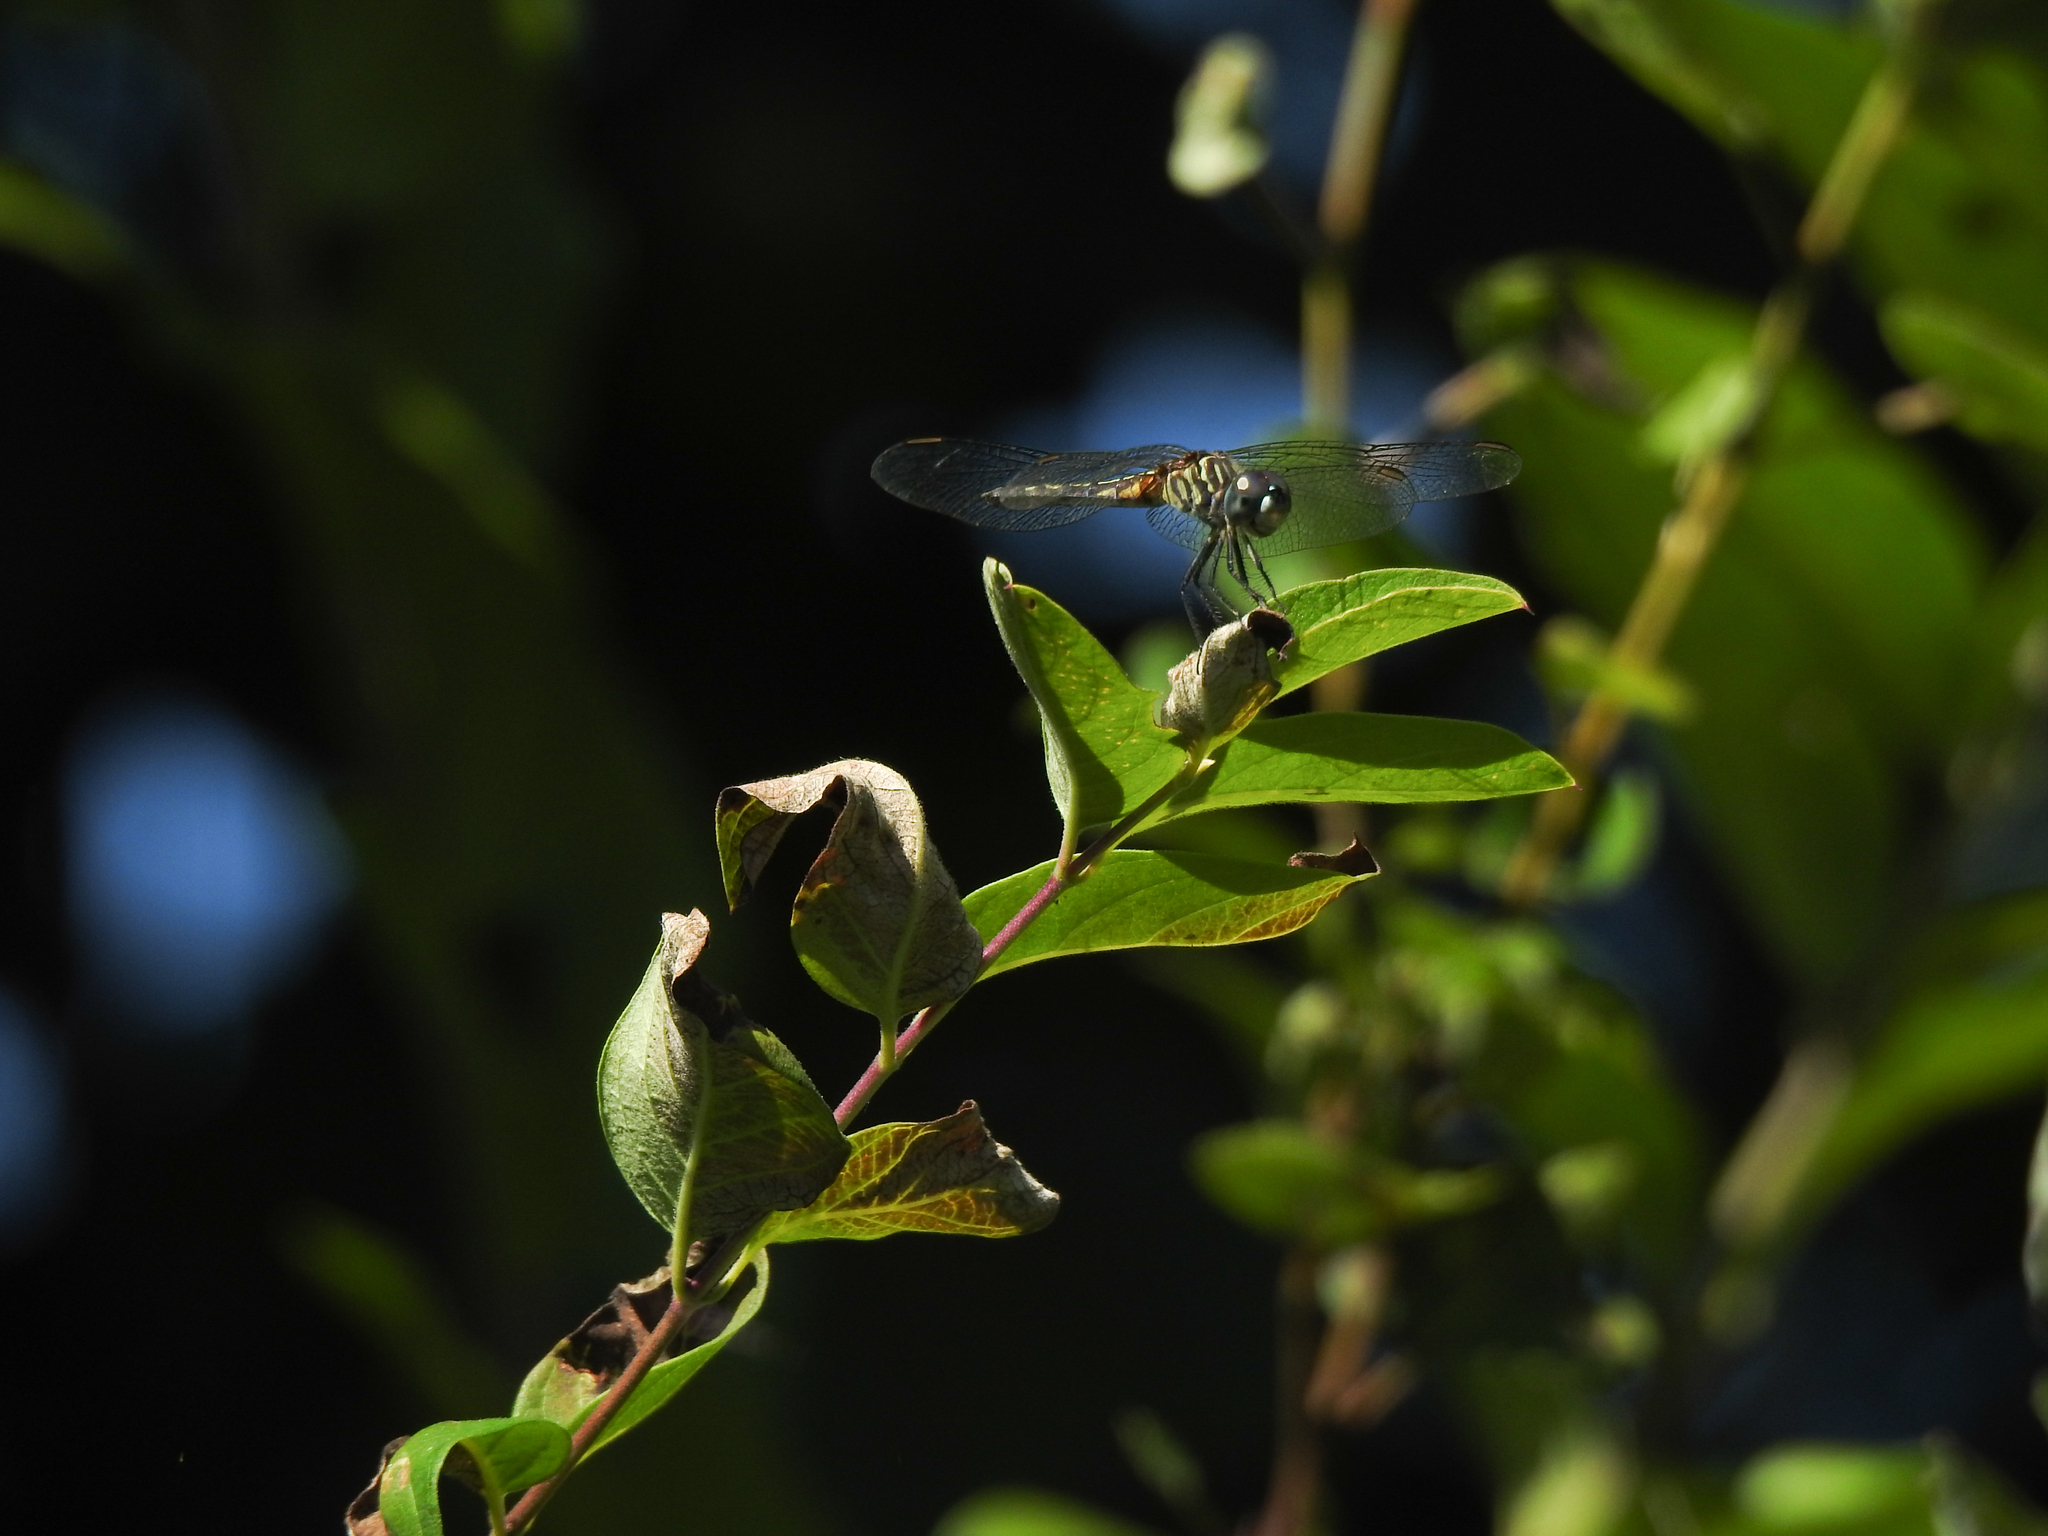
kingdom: Animalia
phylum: Arthropoda
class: Insecta
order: Odonata
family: Libellulidae
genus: Pachydiplax
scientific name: Pachydiplax longipennis
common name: Blue dasher
